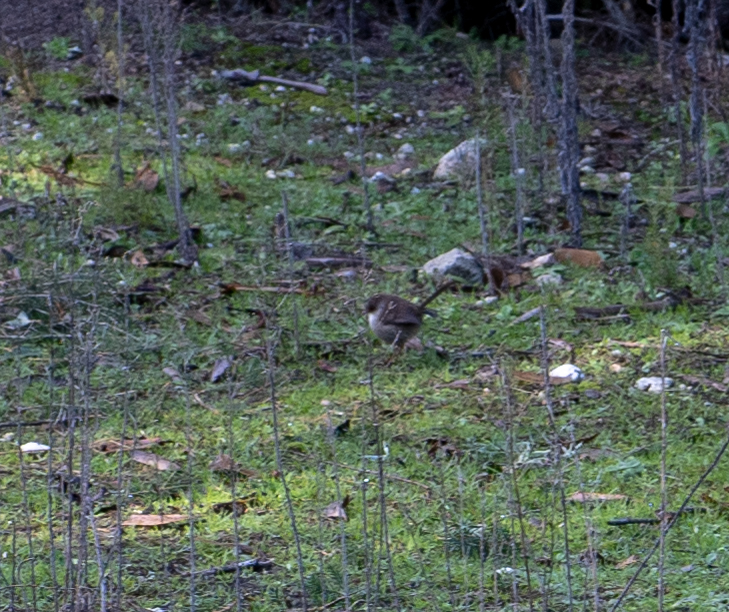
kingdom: Animalia
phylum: Chordata
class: Aves
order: Passeriformes
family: Maluridae
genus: Malurus
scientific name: Malurus cyaneus
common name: Superb fairywren
